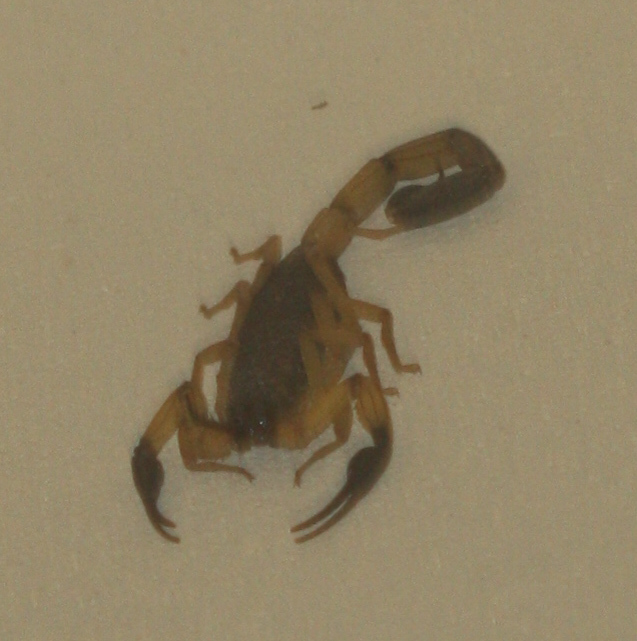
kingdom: Animalia
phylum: Arthropoda
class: Arachnida
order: Scorpiones
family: Buthidae
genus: Centruroides
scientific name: Centruroides bicolor
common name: Scorpions
